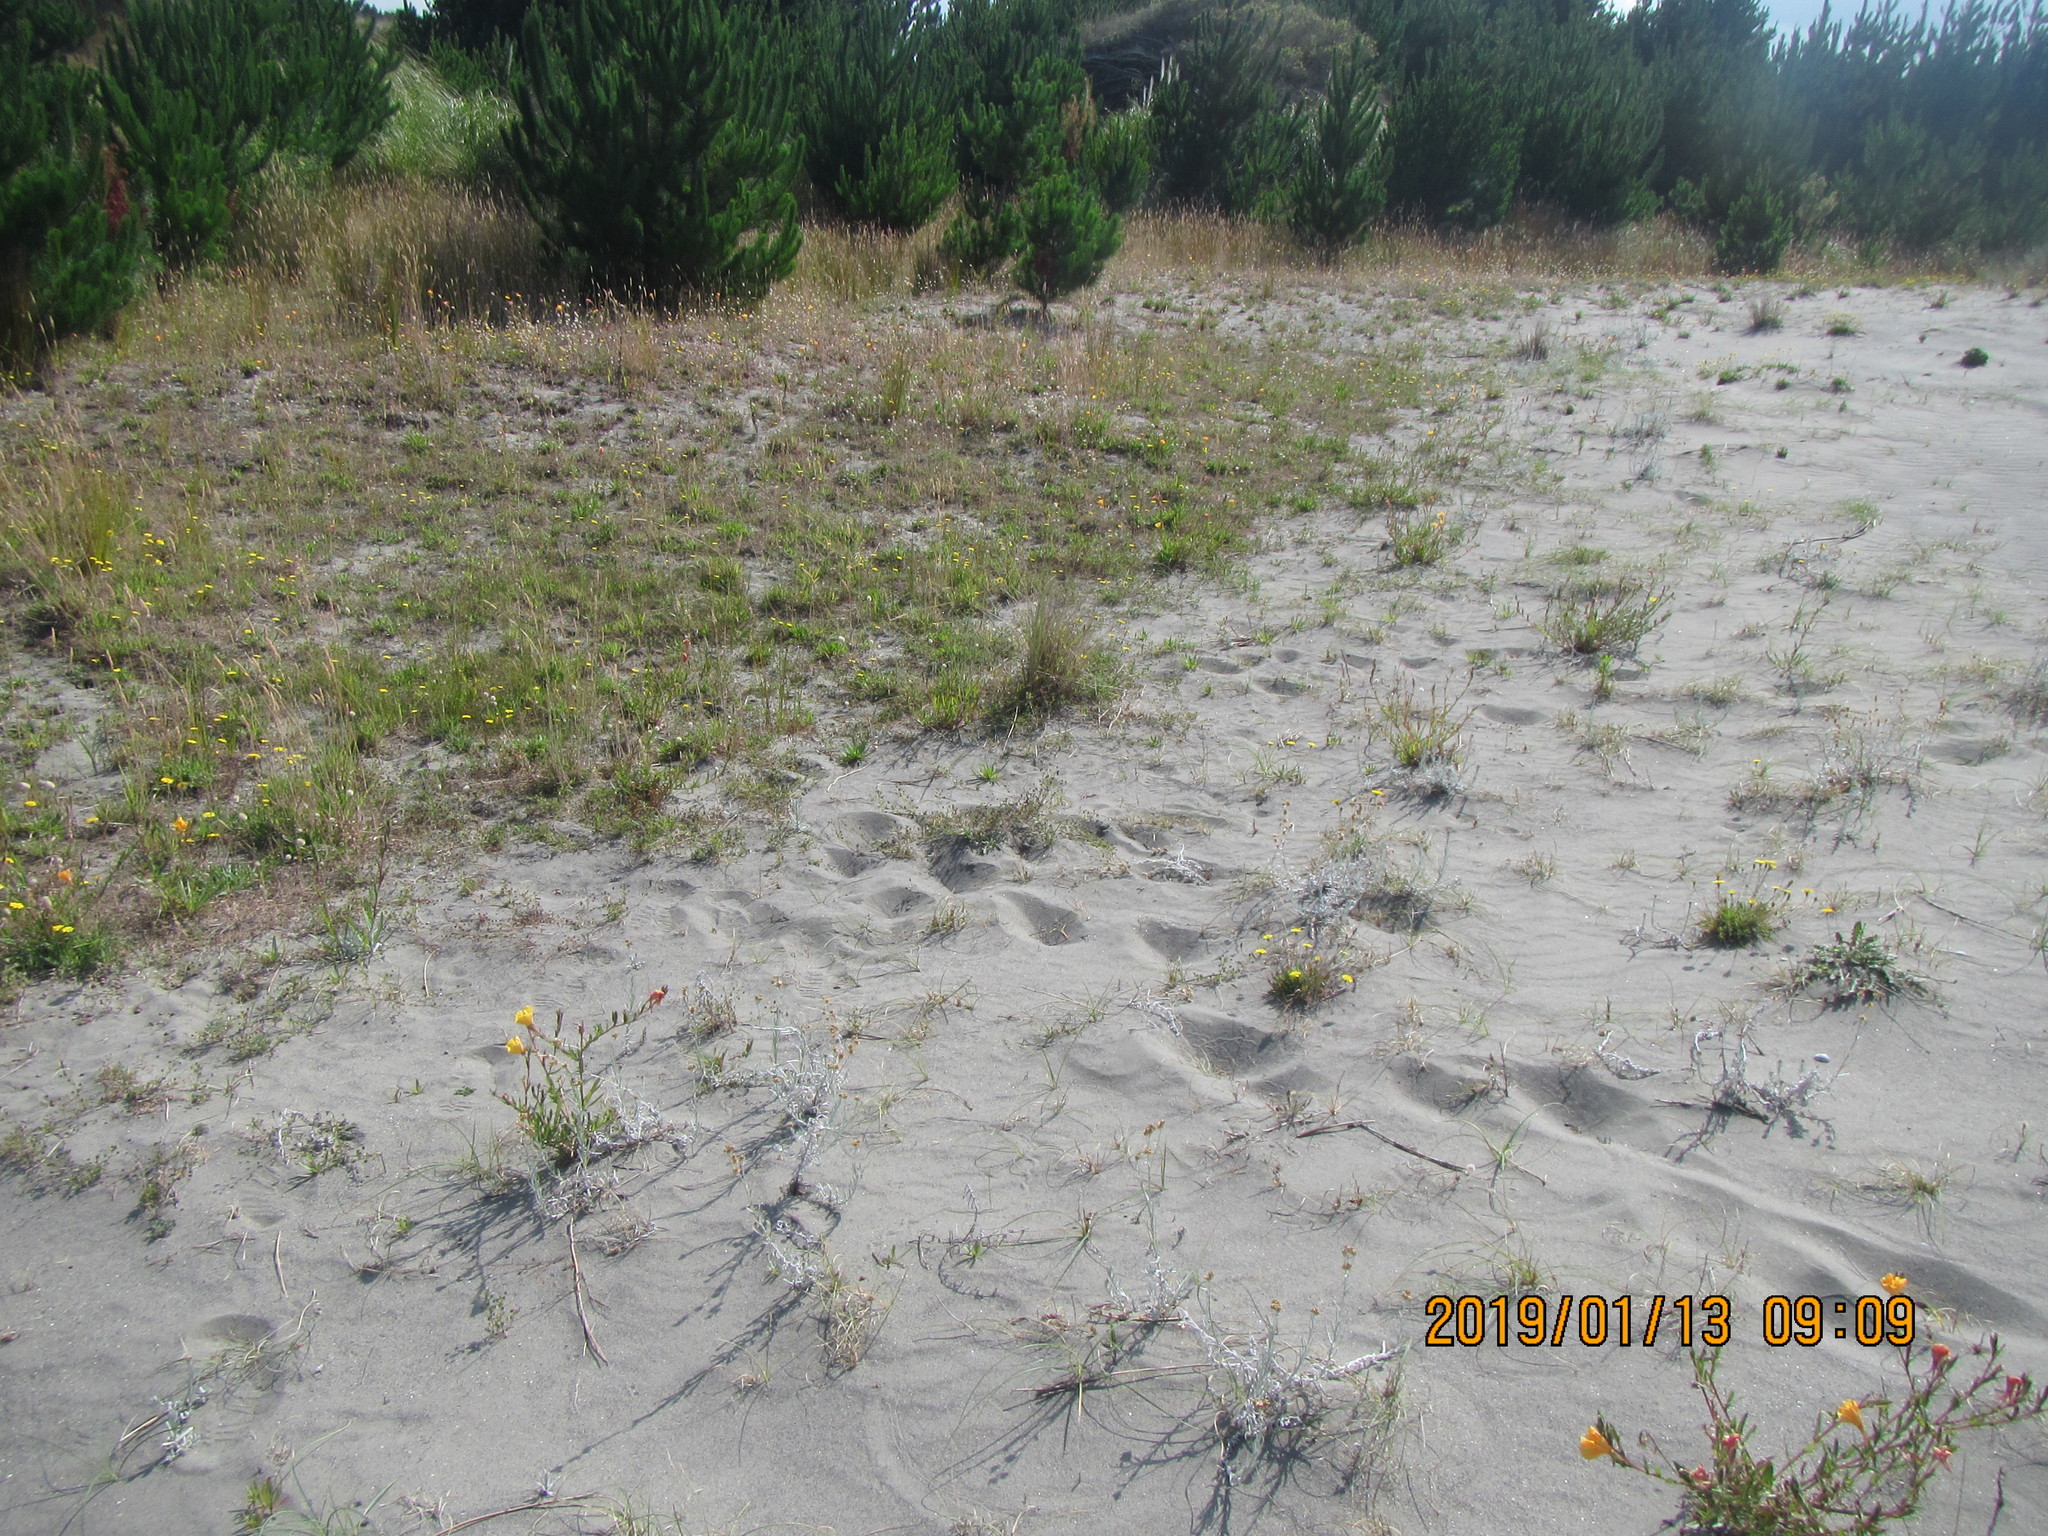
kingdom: Plantae
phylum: Tracheophyta
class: Magnoliopsida
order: Asterales
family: Asteraceae
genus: Helichrysum
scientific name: Helichrysum luteoalbum
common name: Daisy
